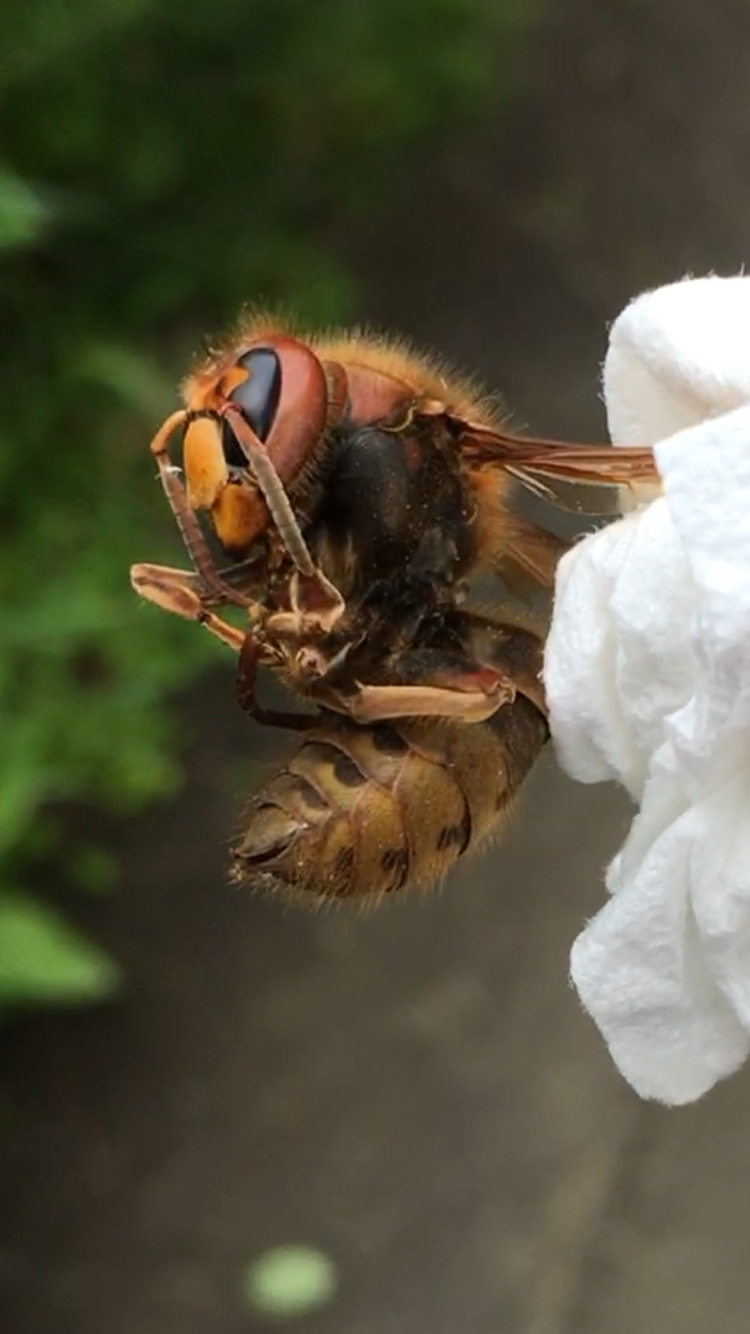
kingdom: Animalia
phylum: Arthropoda
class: Insecta
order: Hymenoptera
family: Vespidae
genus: Vespa
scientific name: Vespa crabro
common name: Hornet
